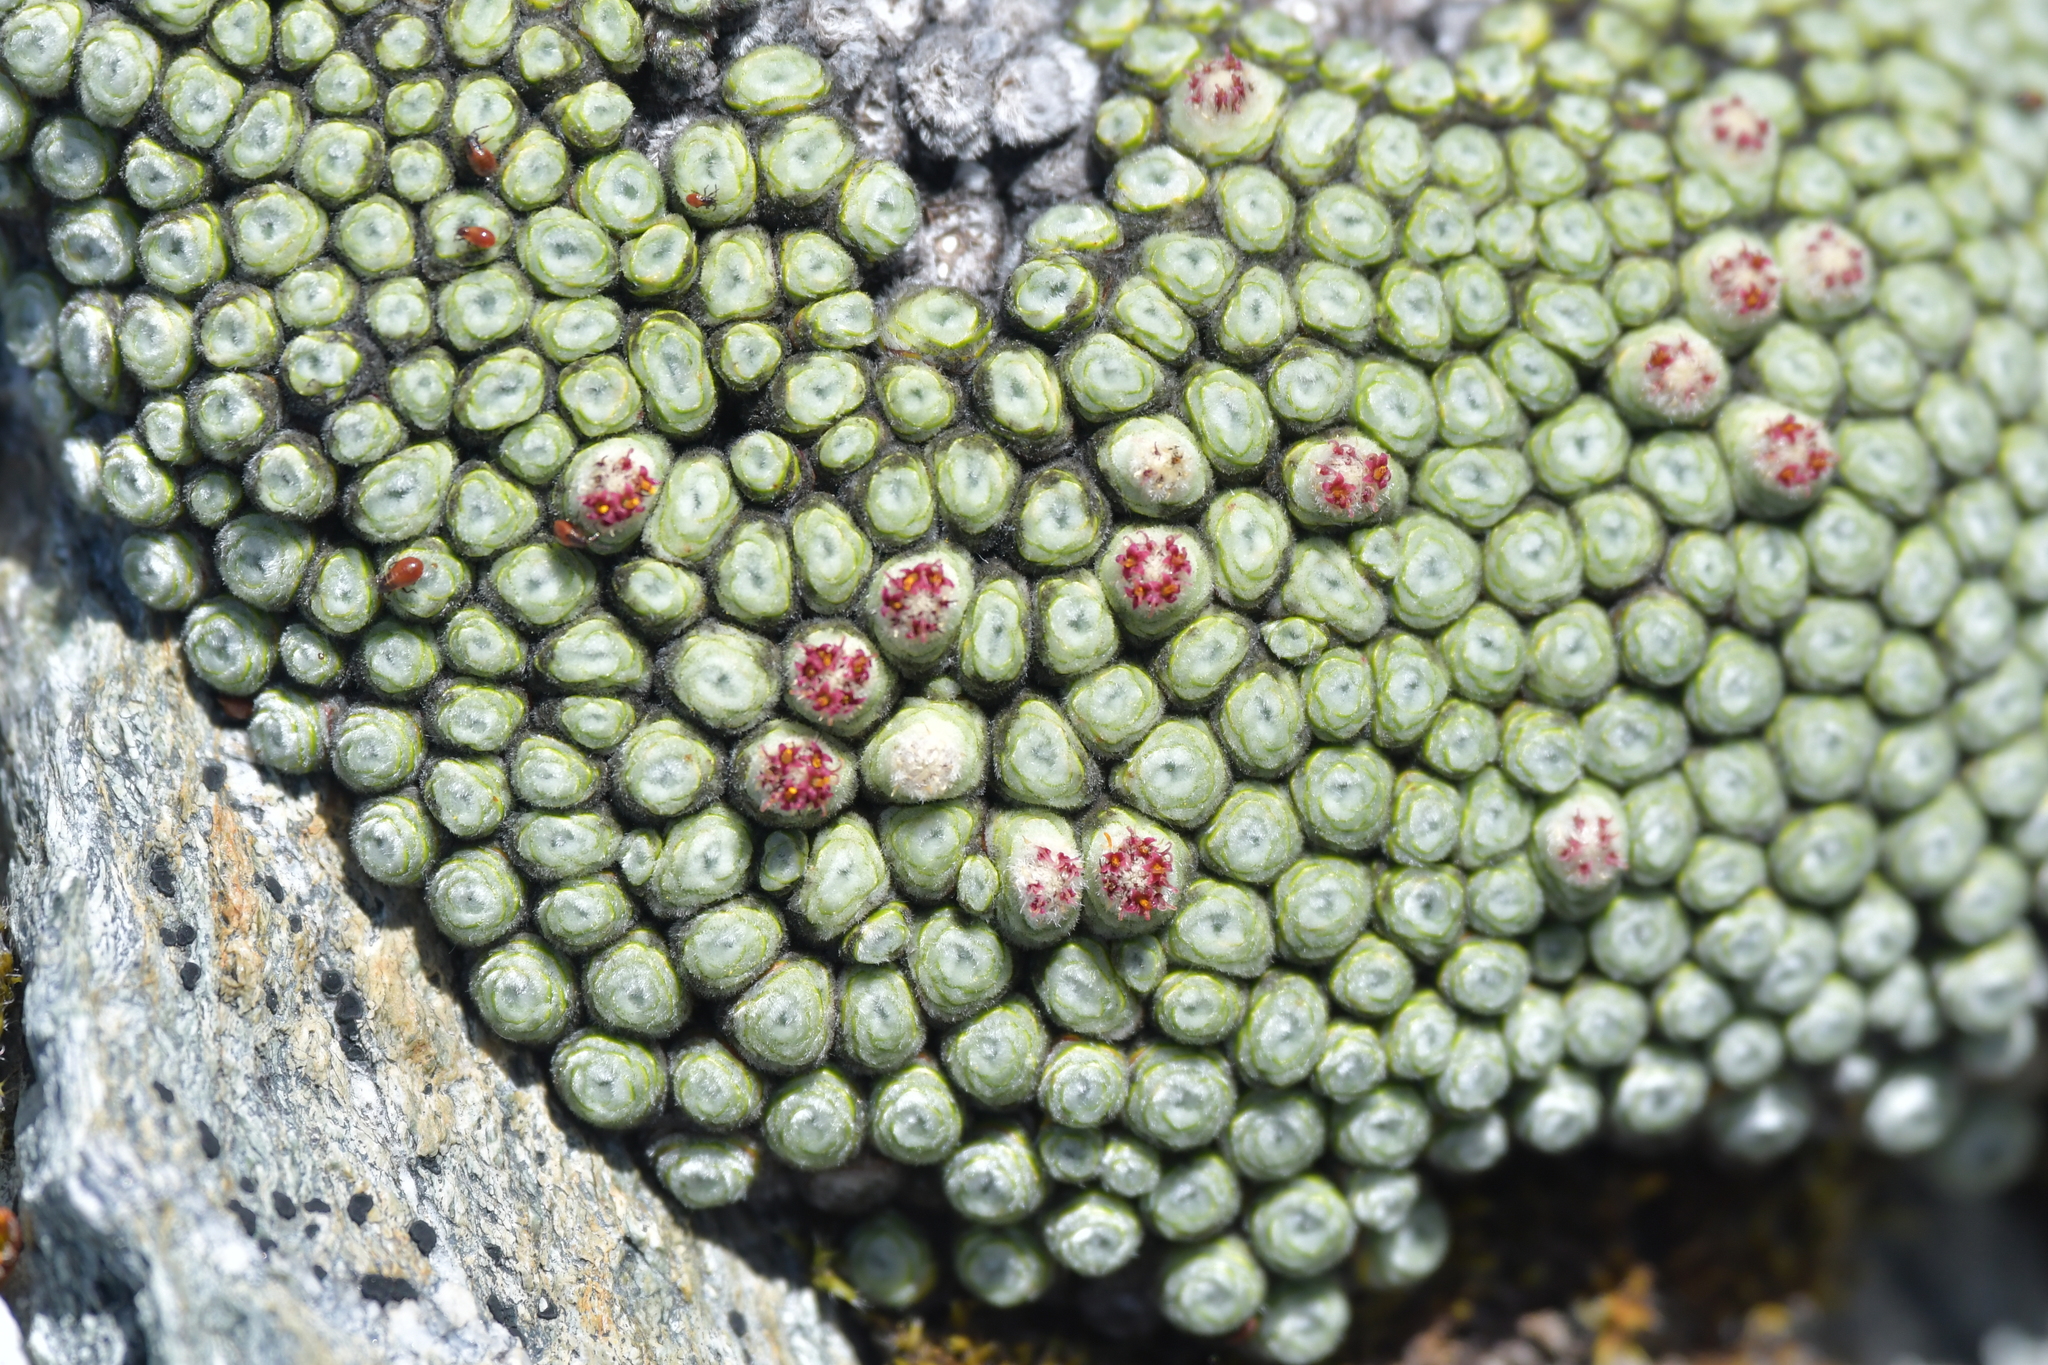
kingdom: Plantae
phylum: Tracheophyta
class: Magnoliopsida
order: Asterales
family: Asteraceae
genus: Raoulia
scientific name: Raoulia buchananii
